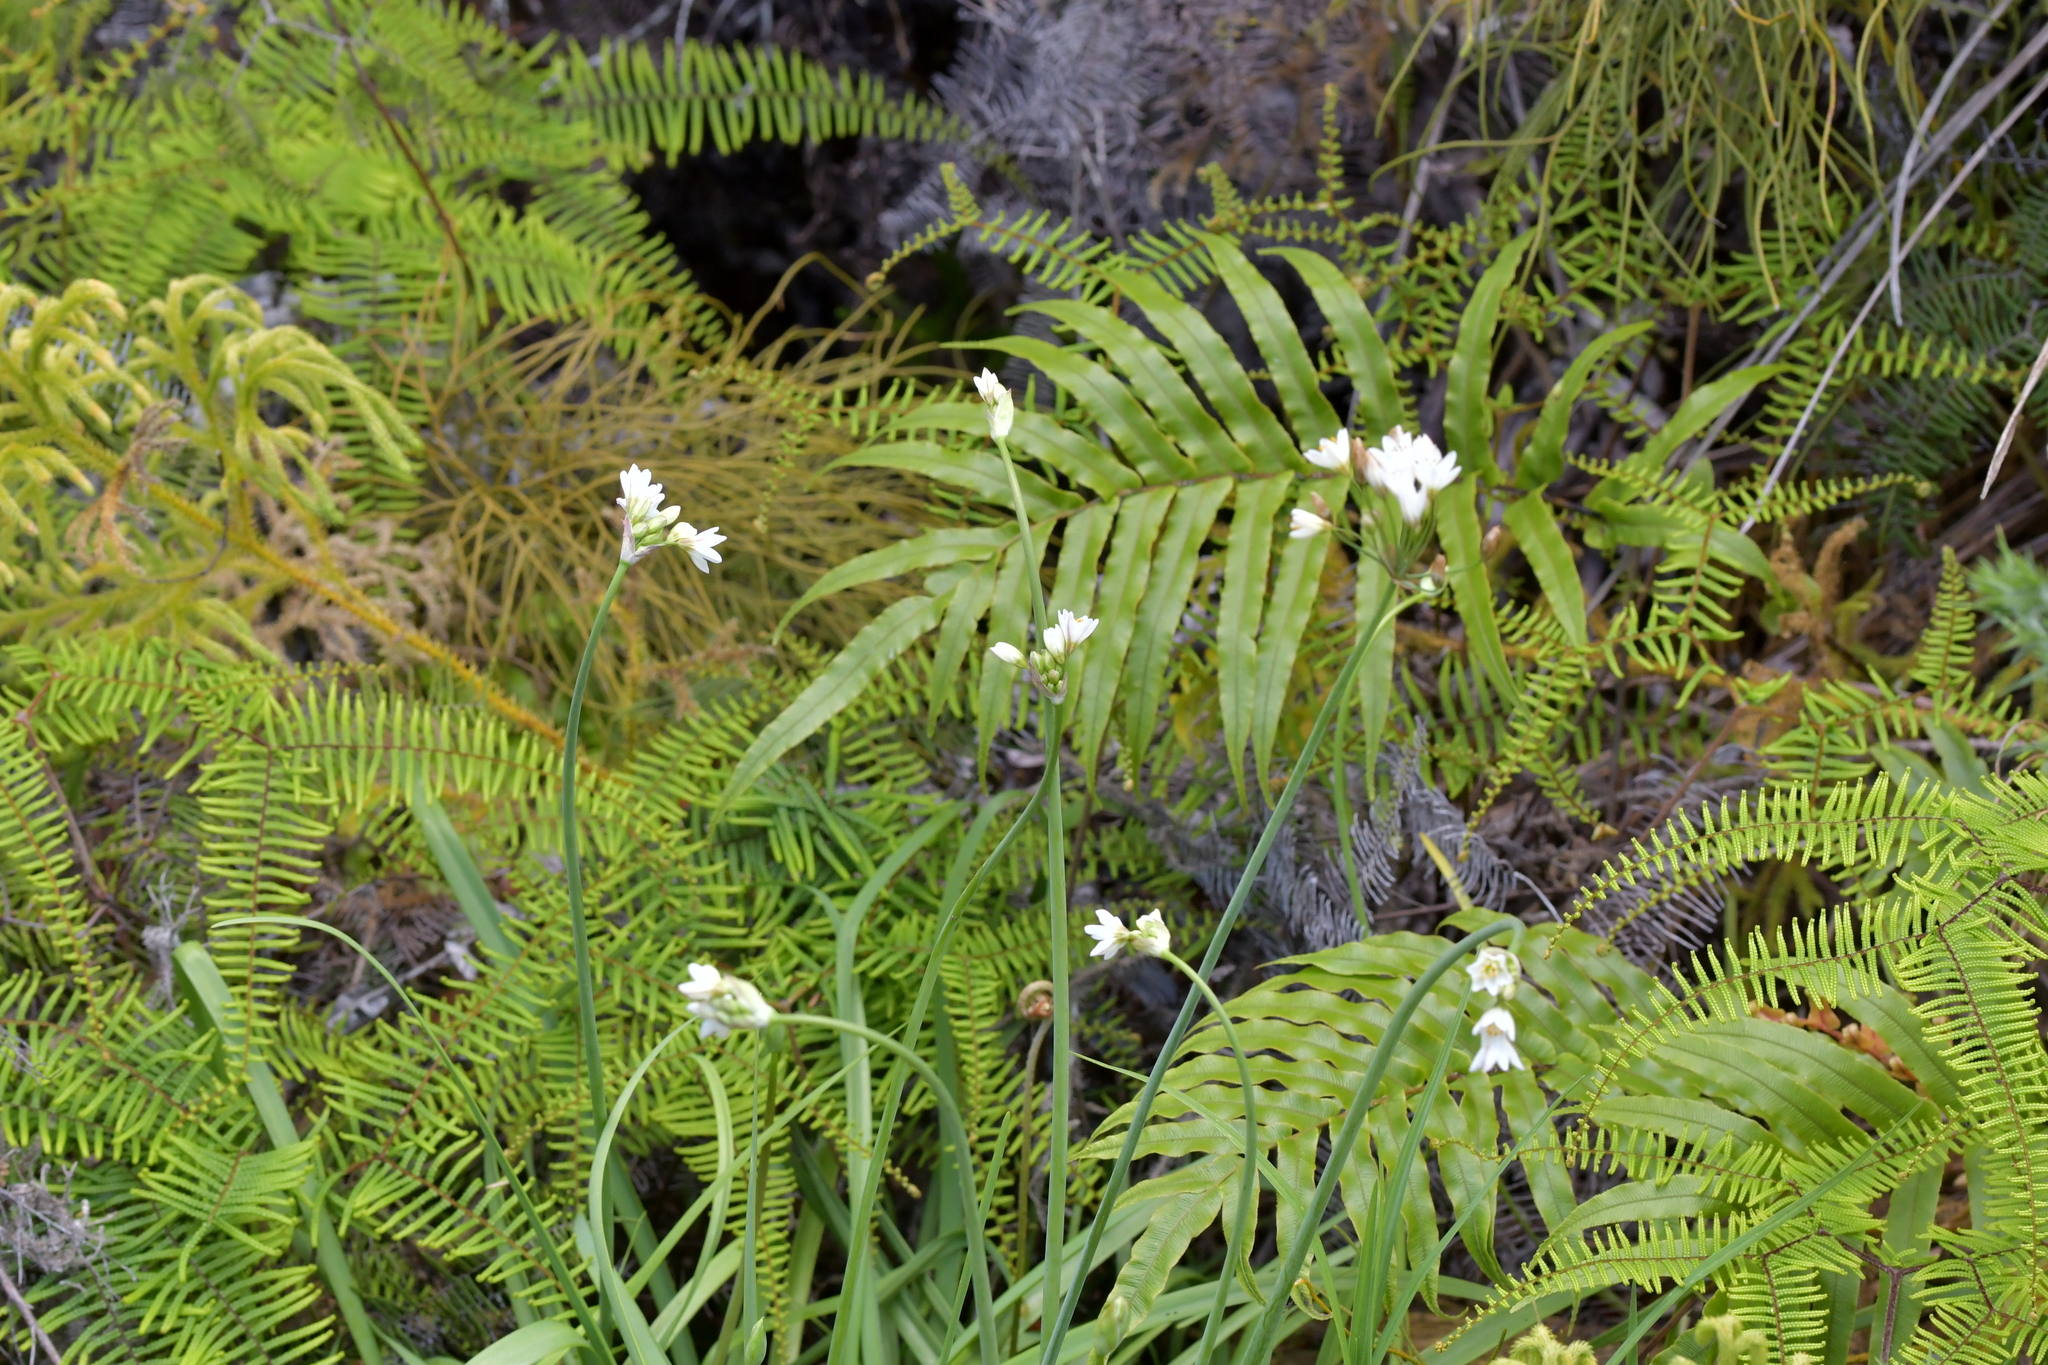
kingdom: Plantae
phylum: Tracheophyta
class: Liliopsida
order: Asparagales
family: Amaryllidaceae
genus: Nothoscordum
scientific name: Nothoscordum gracile
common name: Slender false garlic
